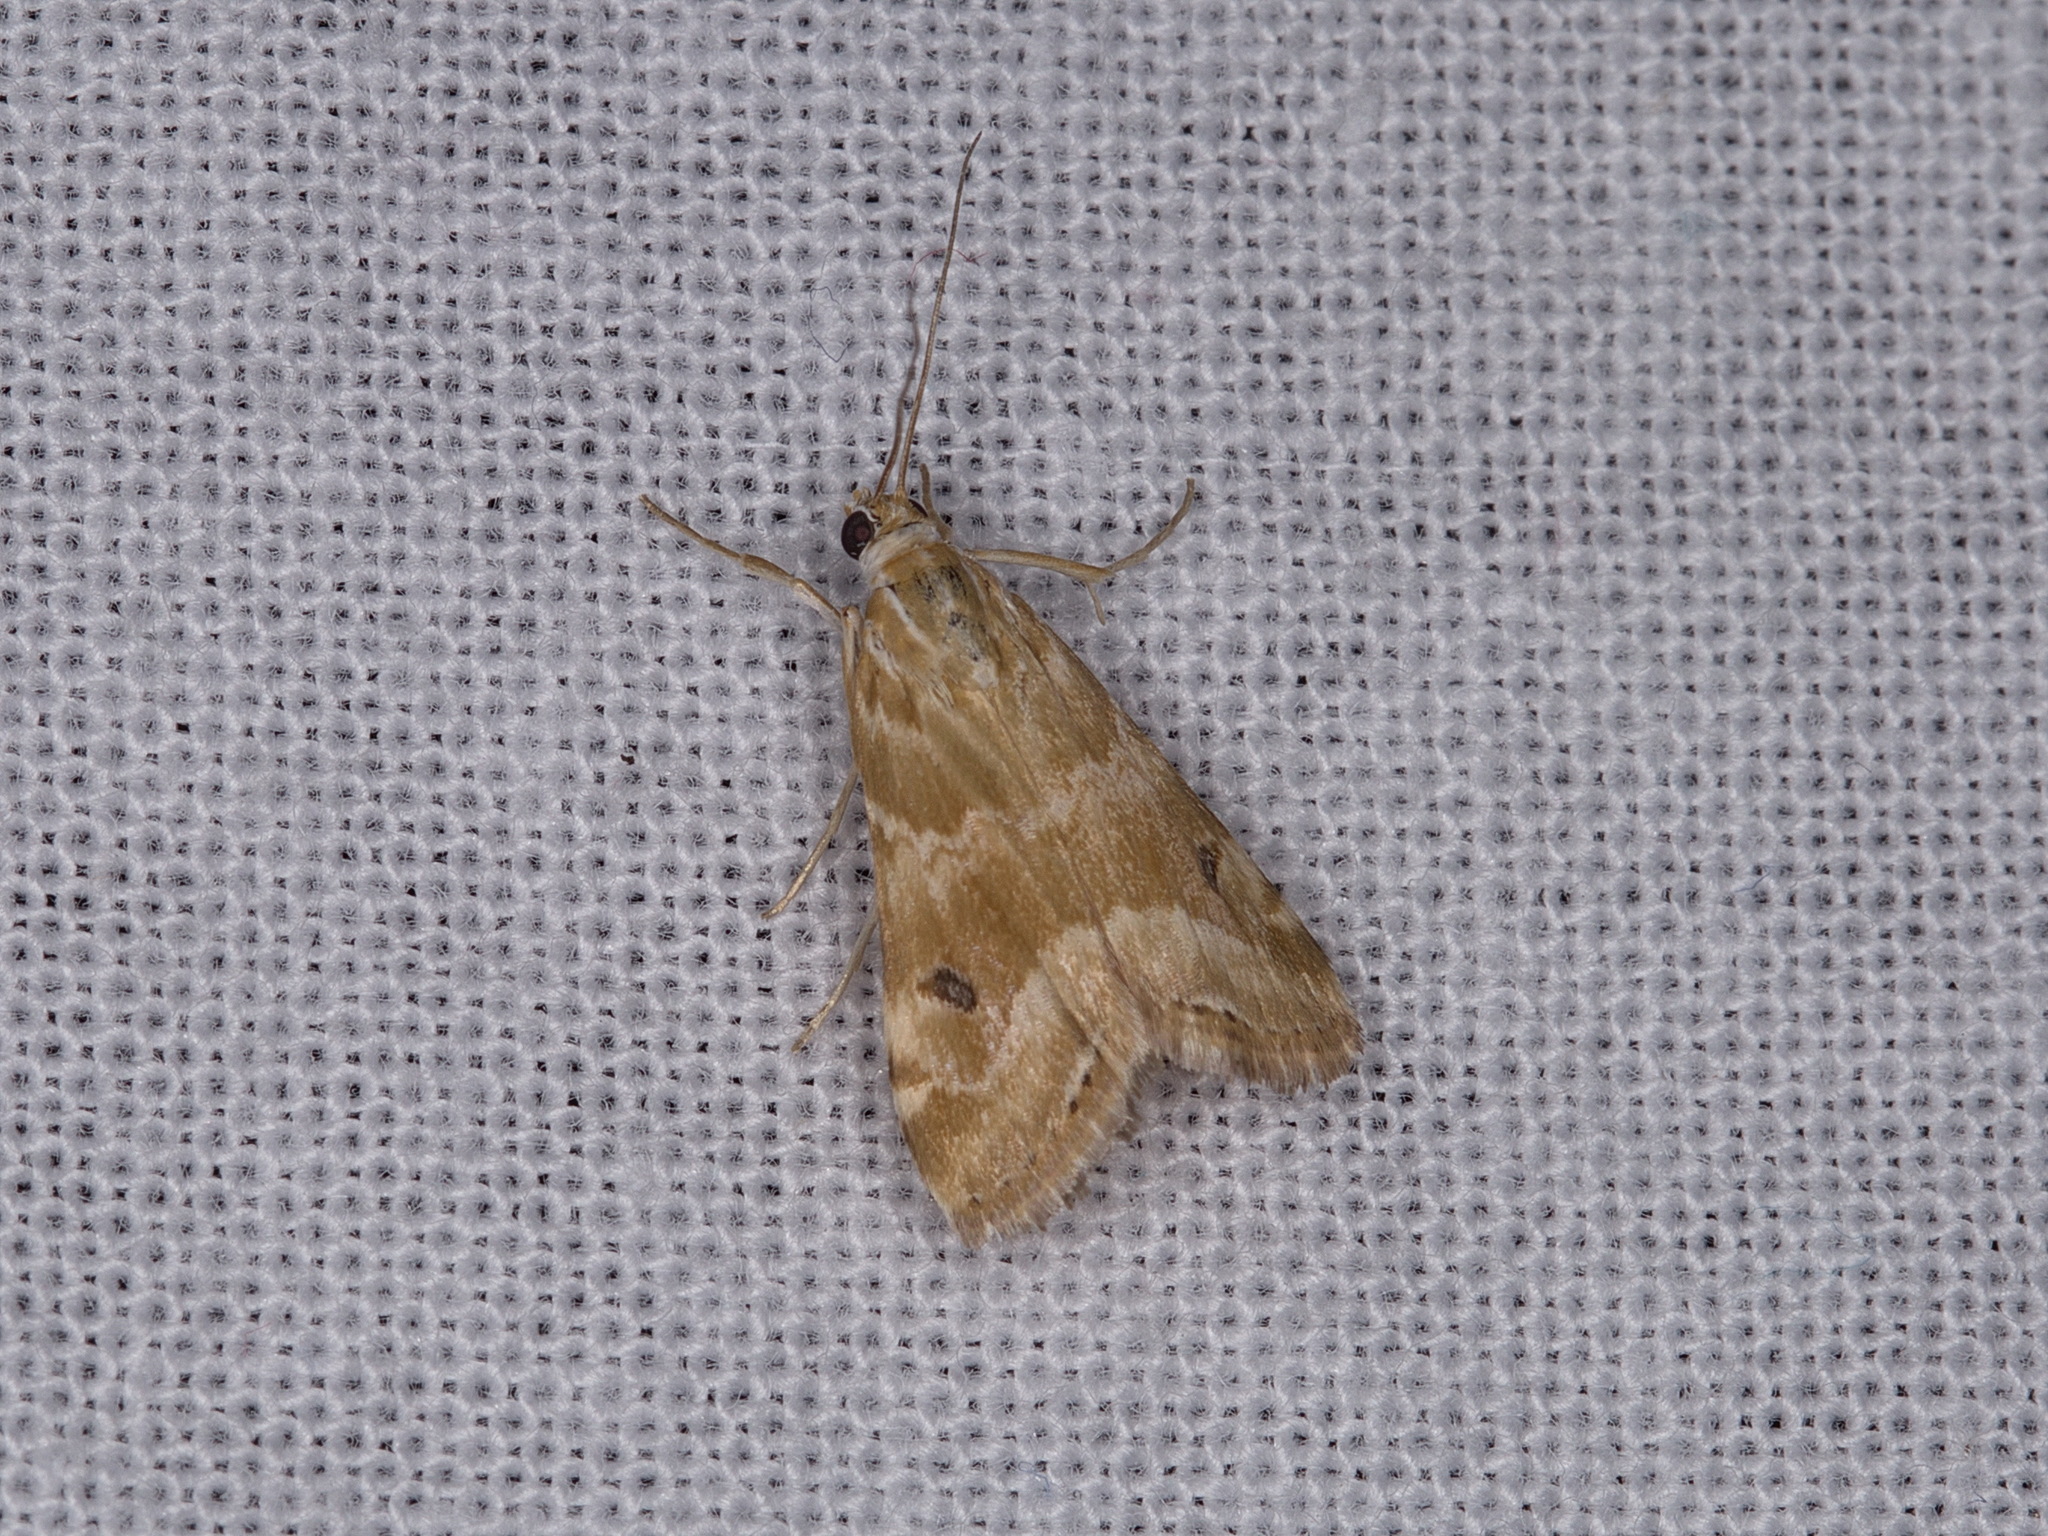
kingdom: Animalia
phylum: Arthropoda
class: Insecta
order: Lepidoptera
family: Crambidae
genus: Hellula
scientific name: Hellula hydralis
